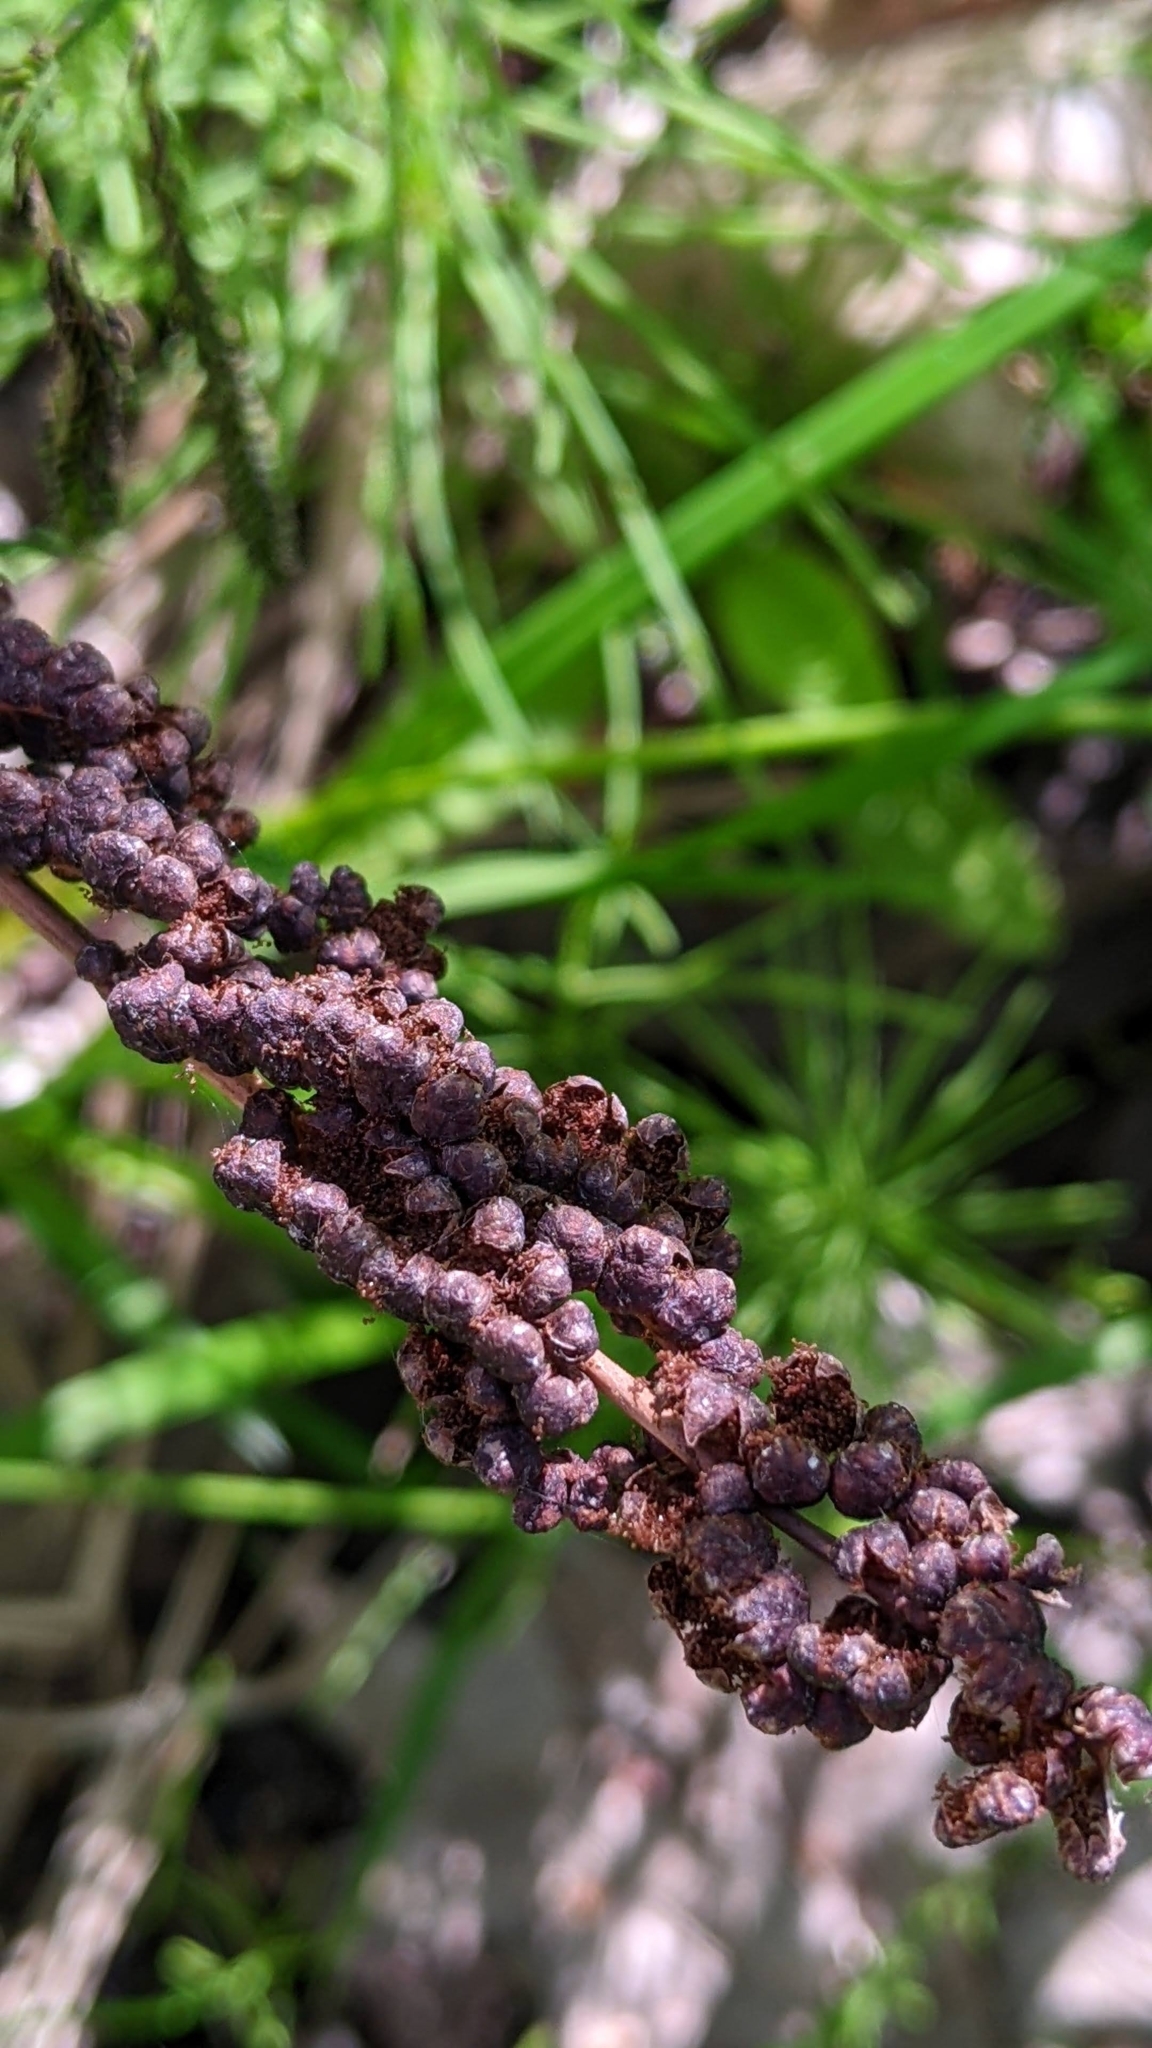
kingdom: Plantae
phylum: Tracheophyta
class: Polypodiopsida
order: Polypodiales
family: Onocleaceae
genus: Onoclea
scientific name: Onoclea sensibilis
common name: Sensitive fern
